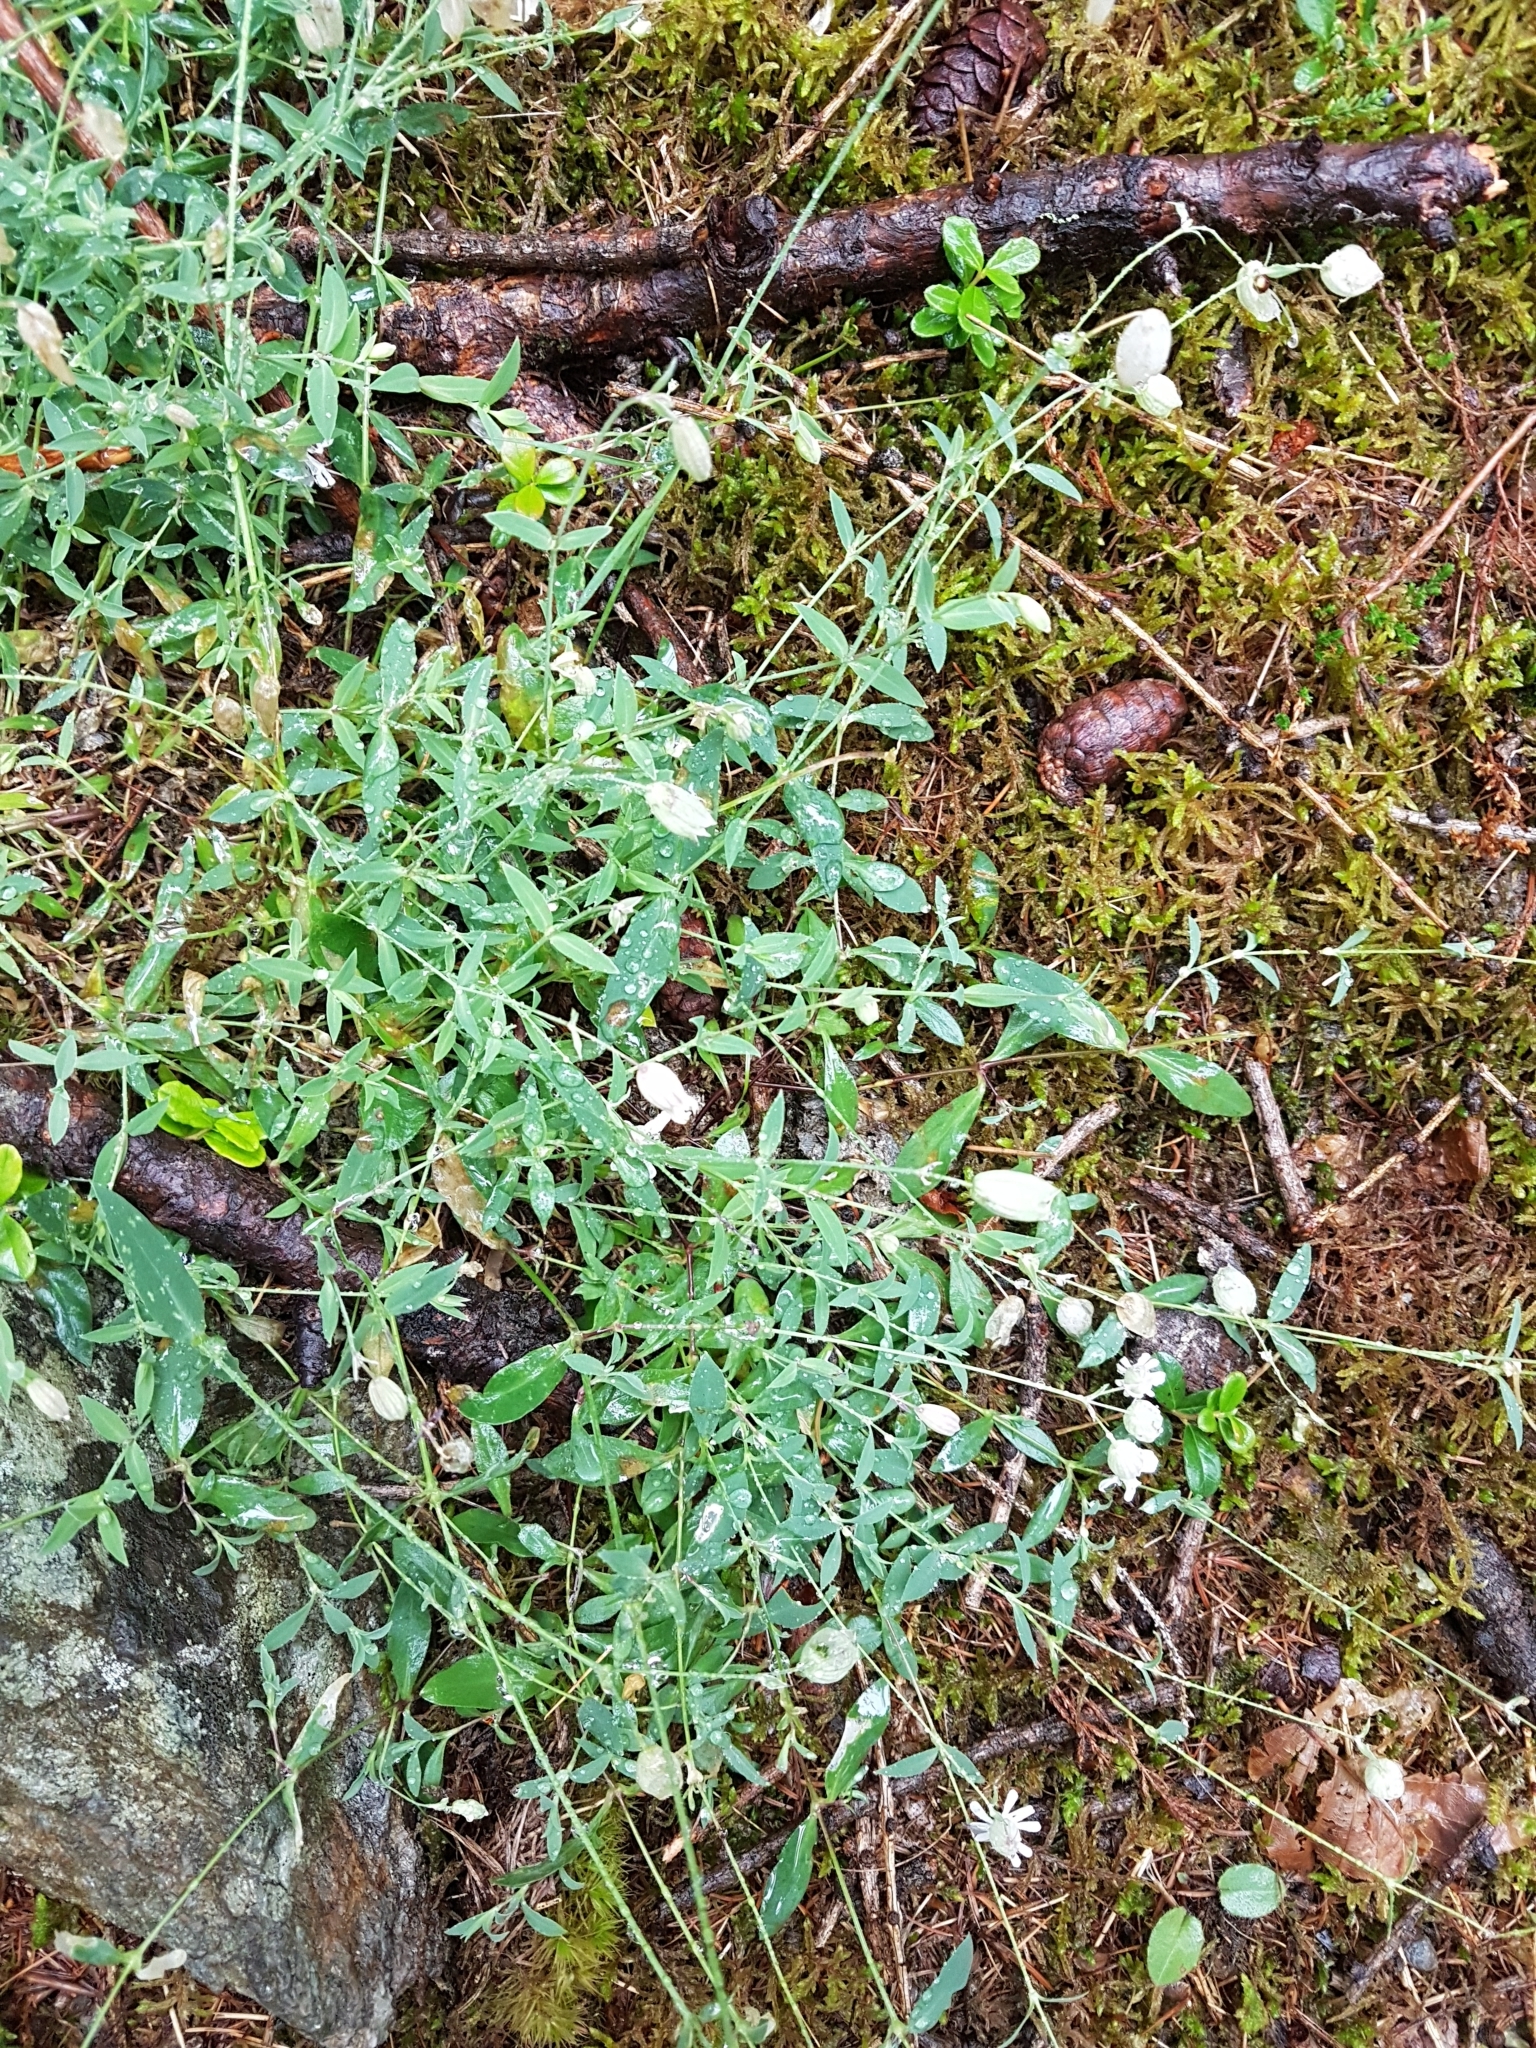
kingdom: Plantae
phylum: Tracheophyta
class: Magnoliopsida
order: Caryophyllales
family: Caryophyllaceae
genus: Silene
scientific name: Silene vulgaris
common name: Bladder campion
